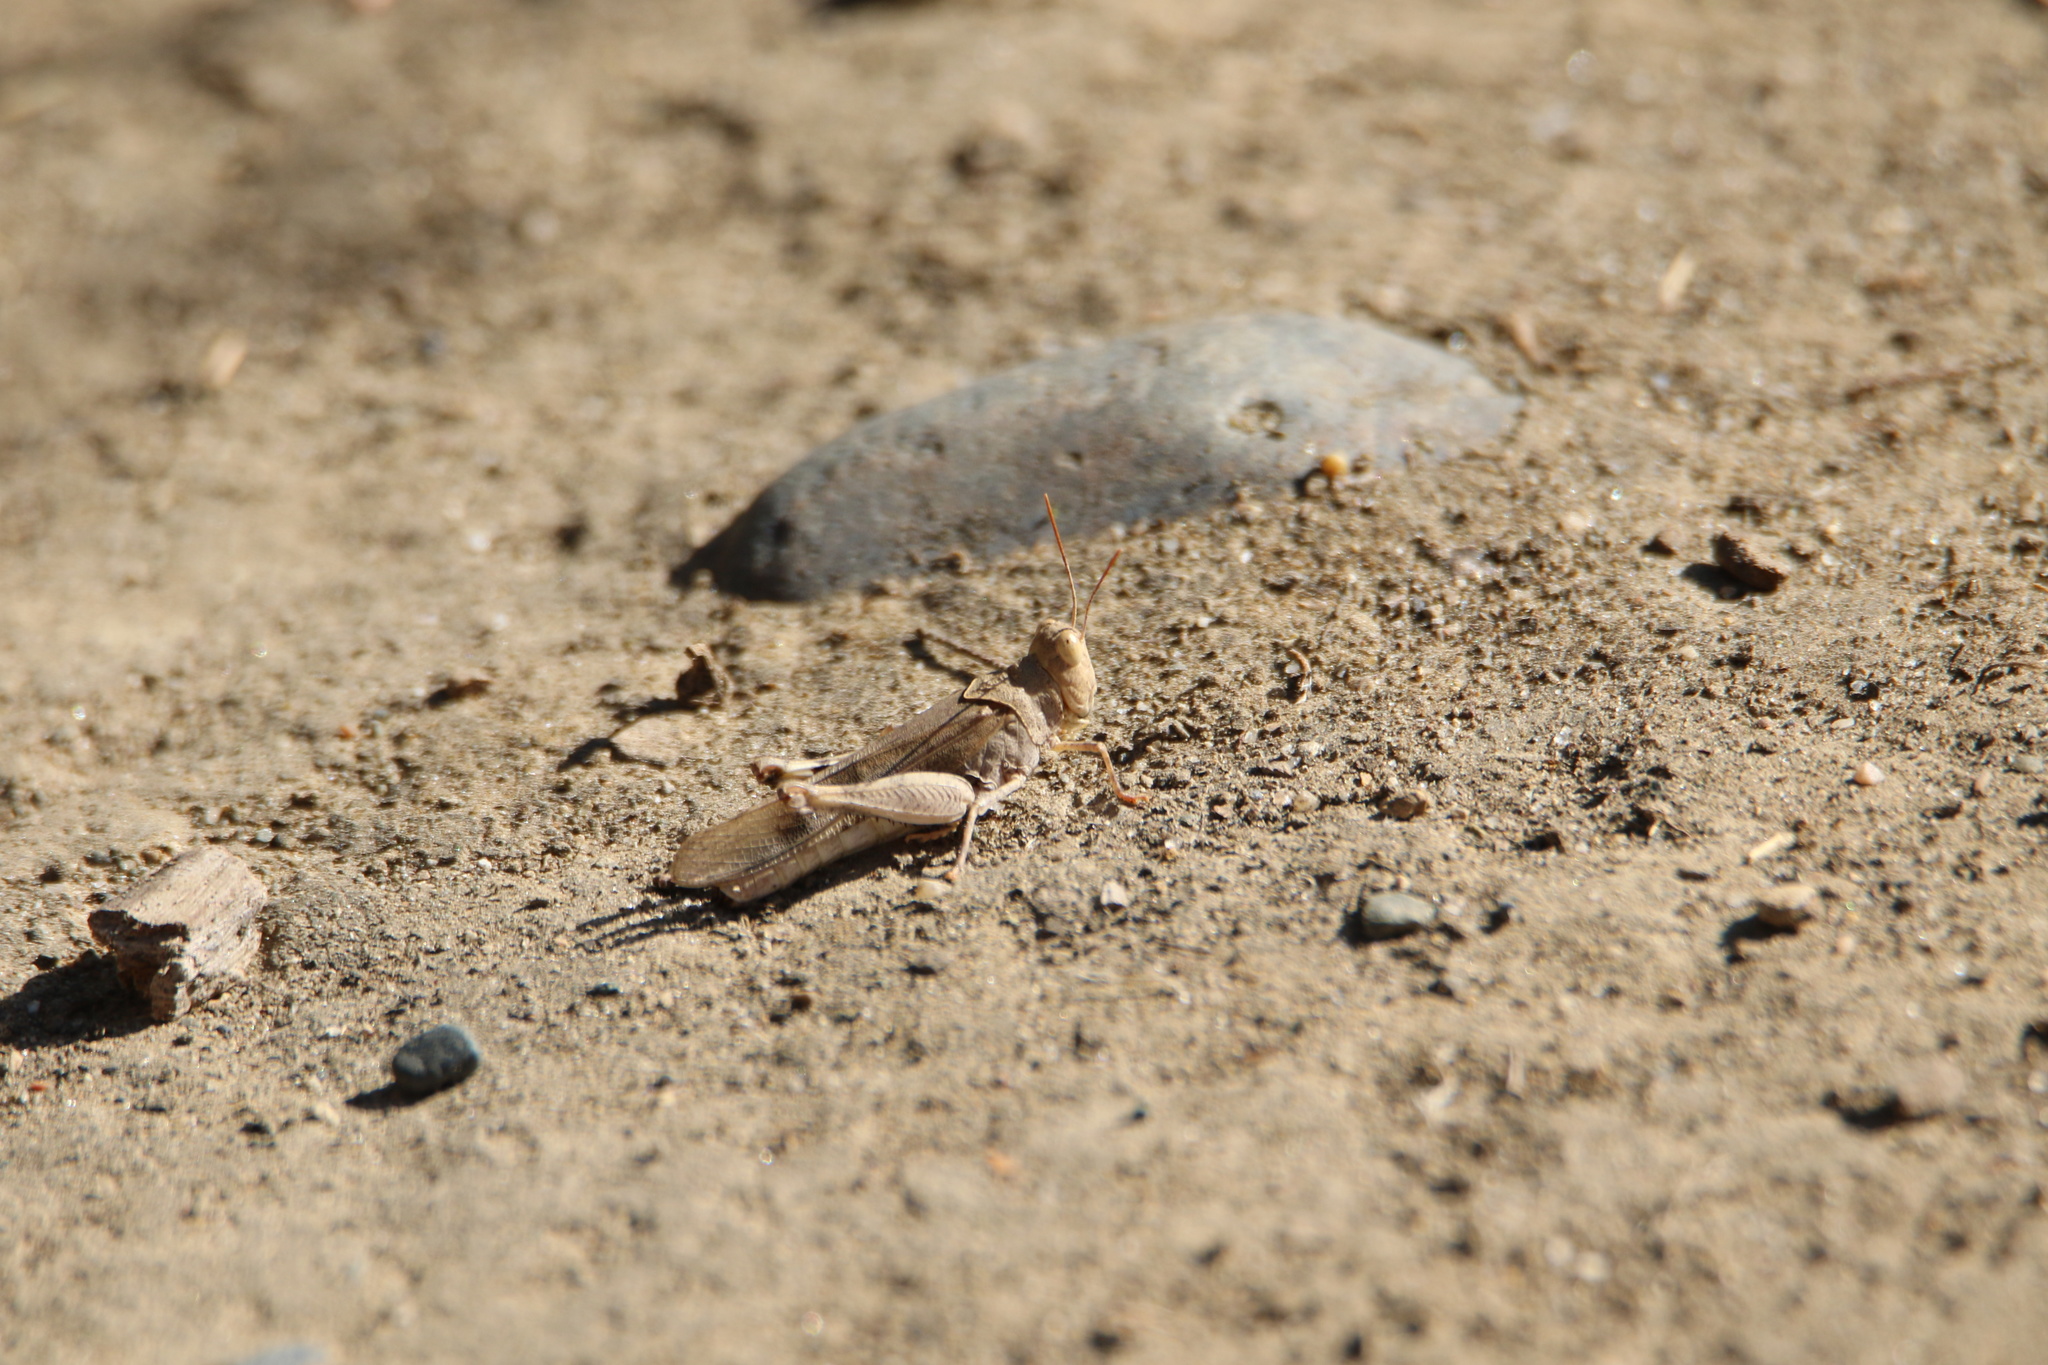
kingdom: Animalia
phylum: Arthropoda
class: Insecta
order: Orthoptera
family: Acrididae
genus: Dissosteira
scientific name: Dissosteira pictipennis
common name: California rose-winged grasshopper
